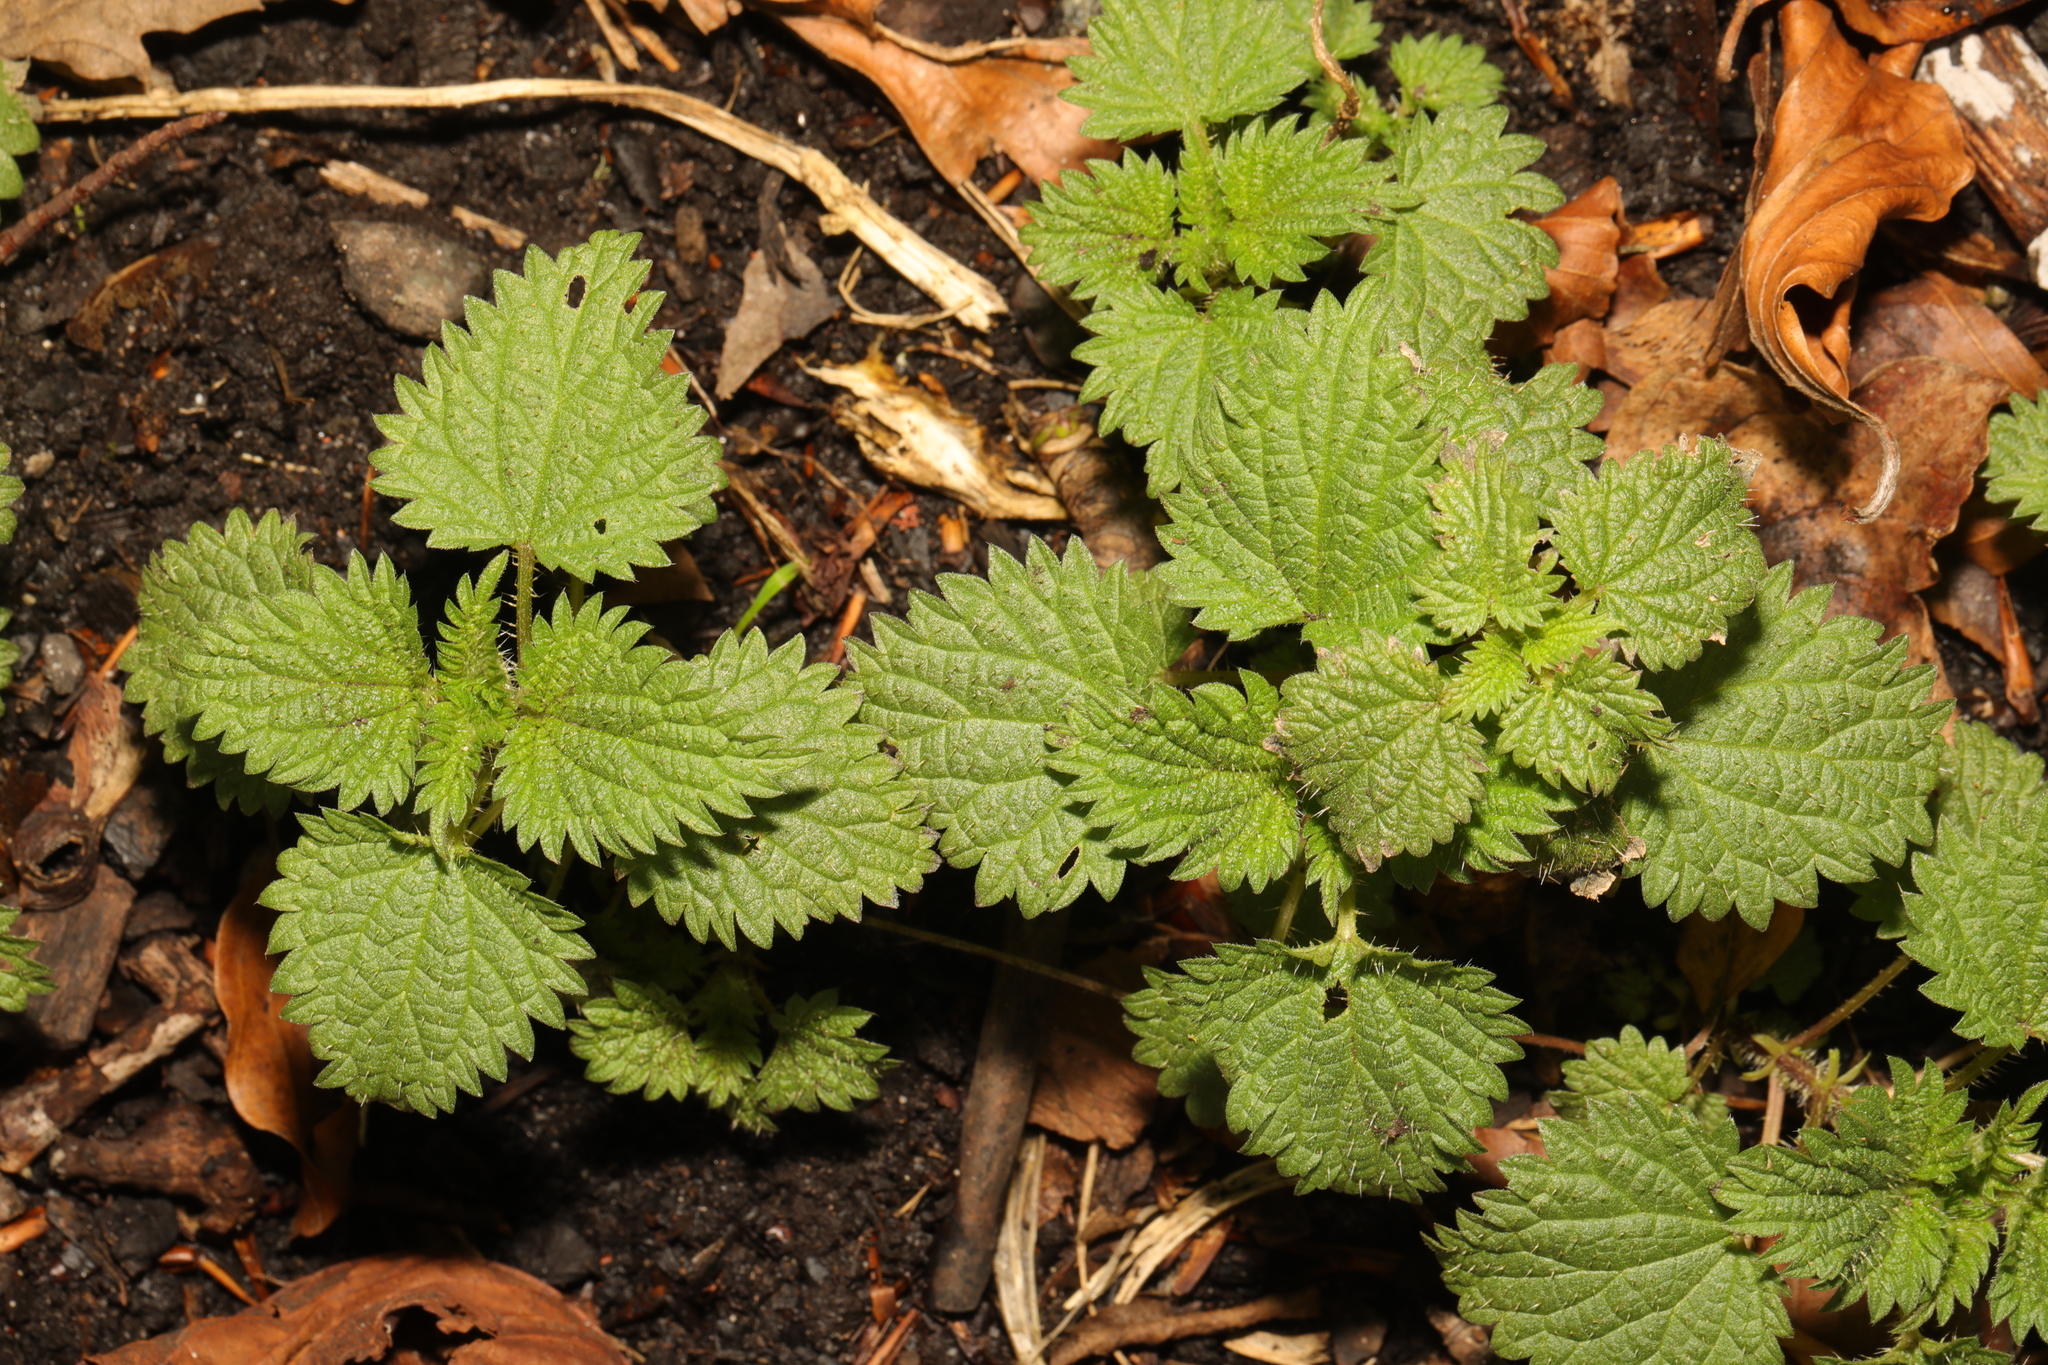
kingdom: Plantae
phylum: Tracheophyta
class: Magnoliopsida
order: Rosales
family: Urticaceae
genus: Urtica
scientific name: Urtica dioica
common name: Common nettle
